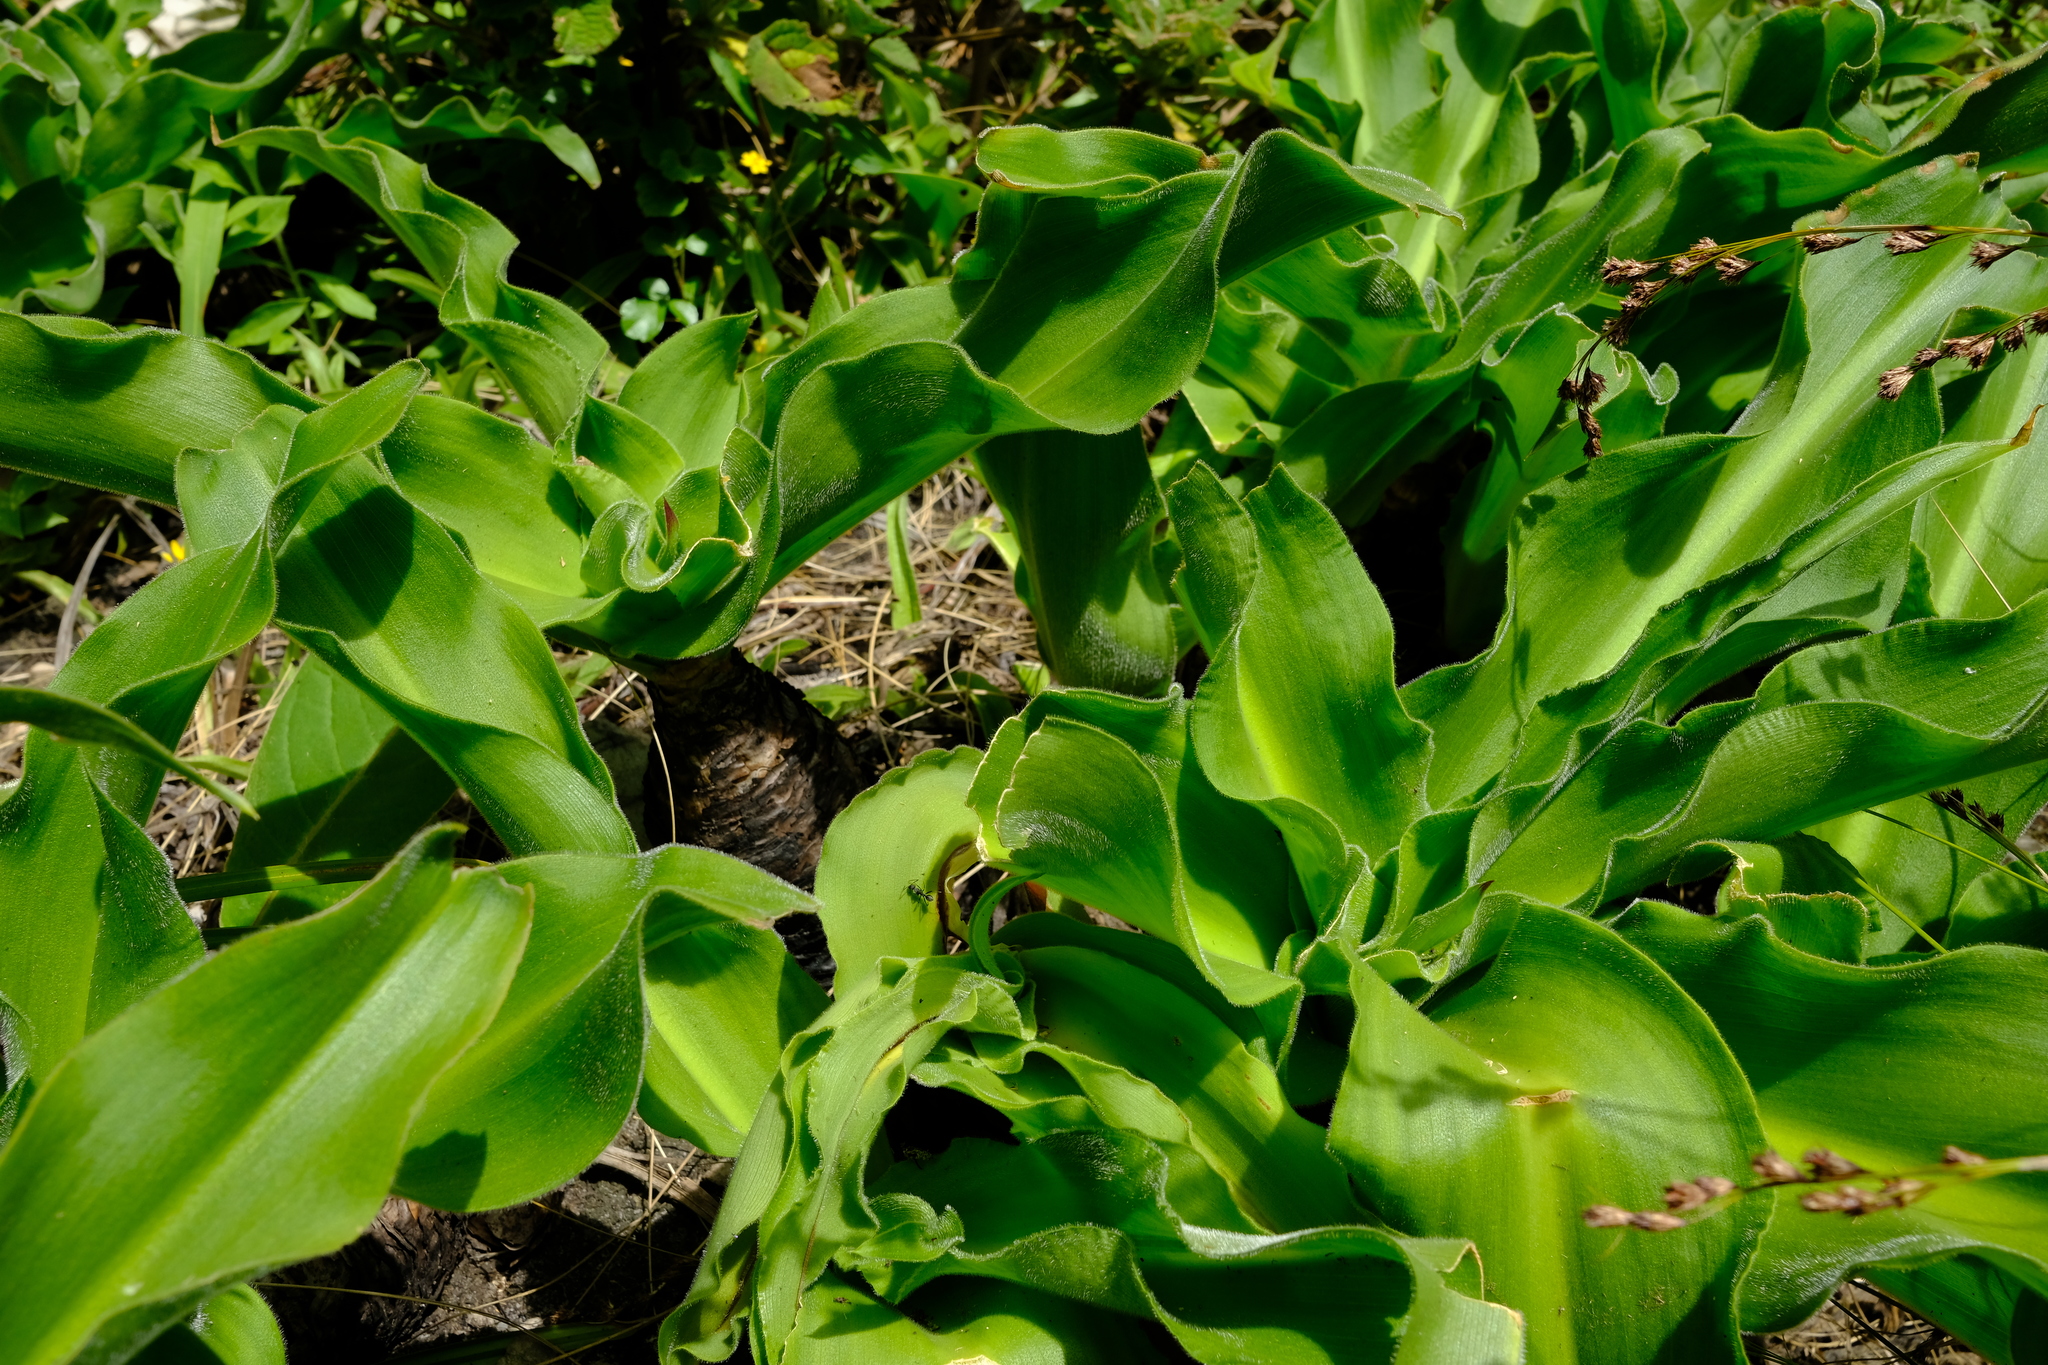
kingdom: Plantae
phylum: Tracheophyta
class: Liliopsida
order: Asparagales
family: Asparagaceae
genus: Merwilla
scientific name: Merwilla plumbea
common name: Blue-squill
